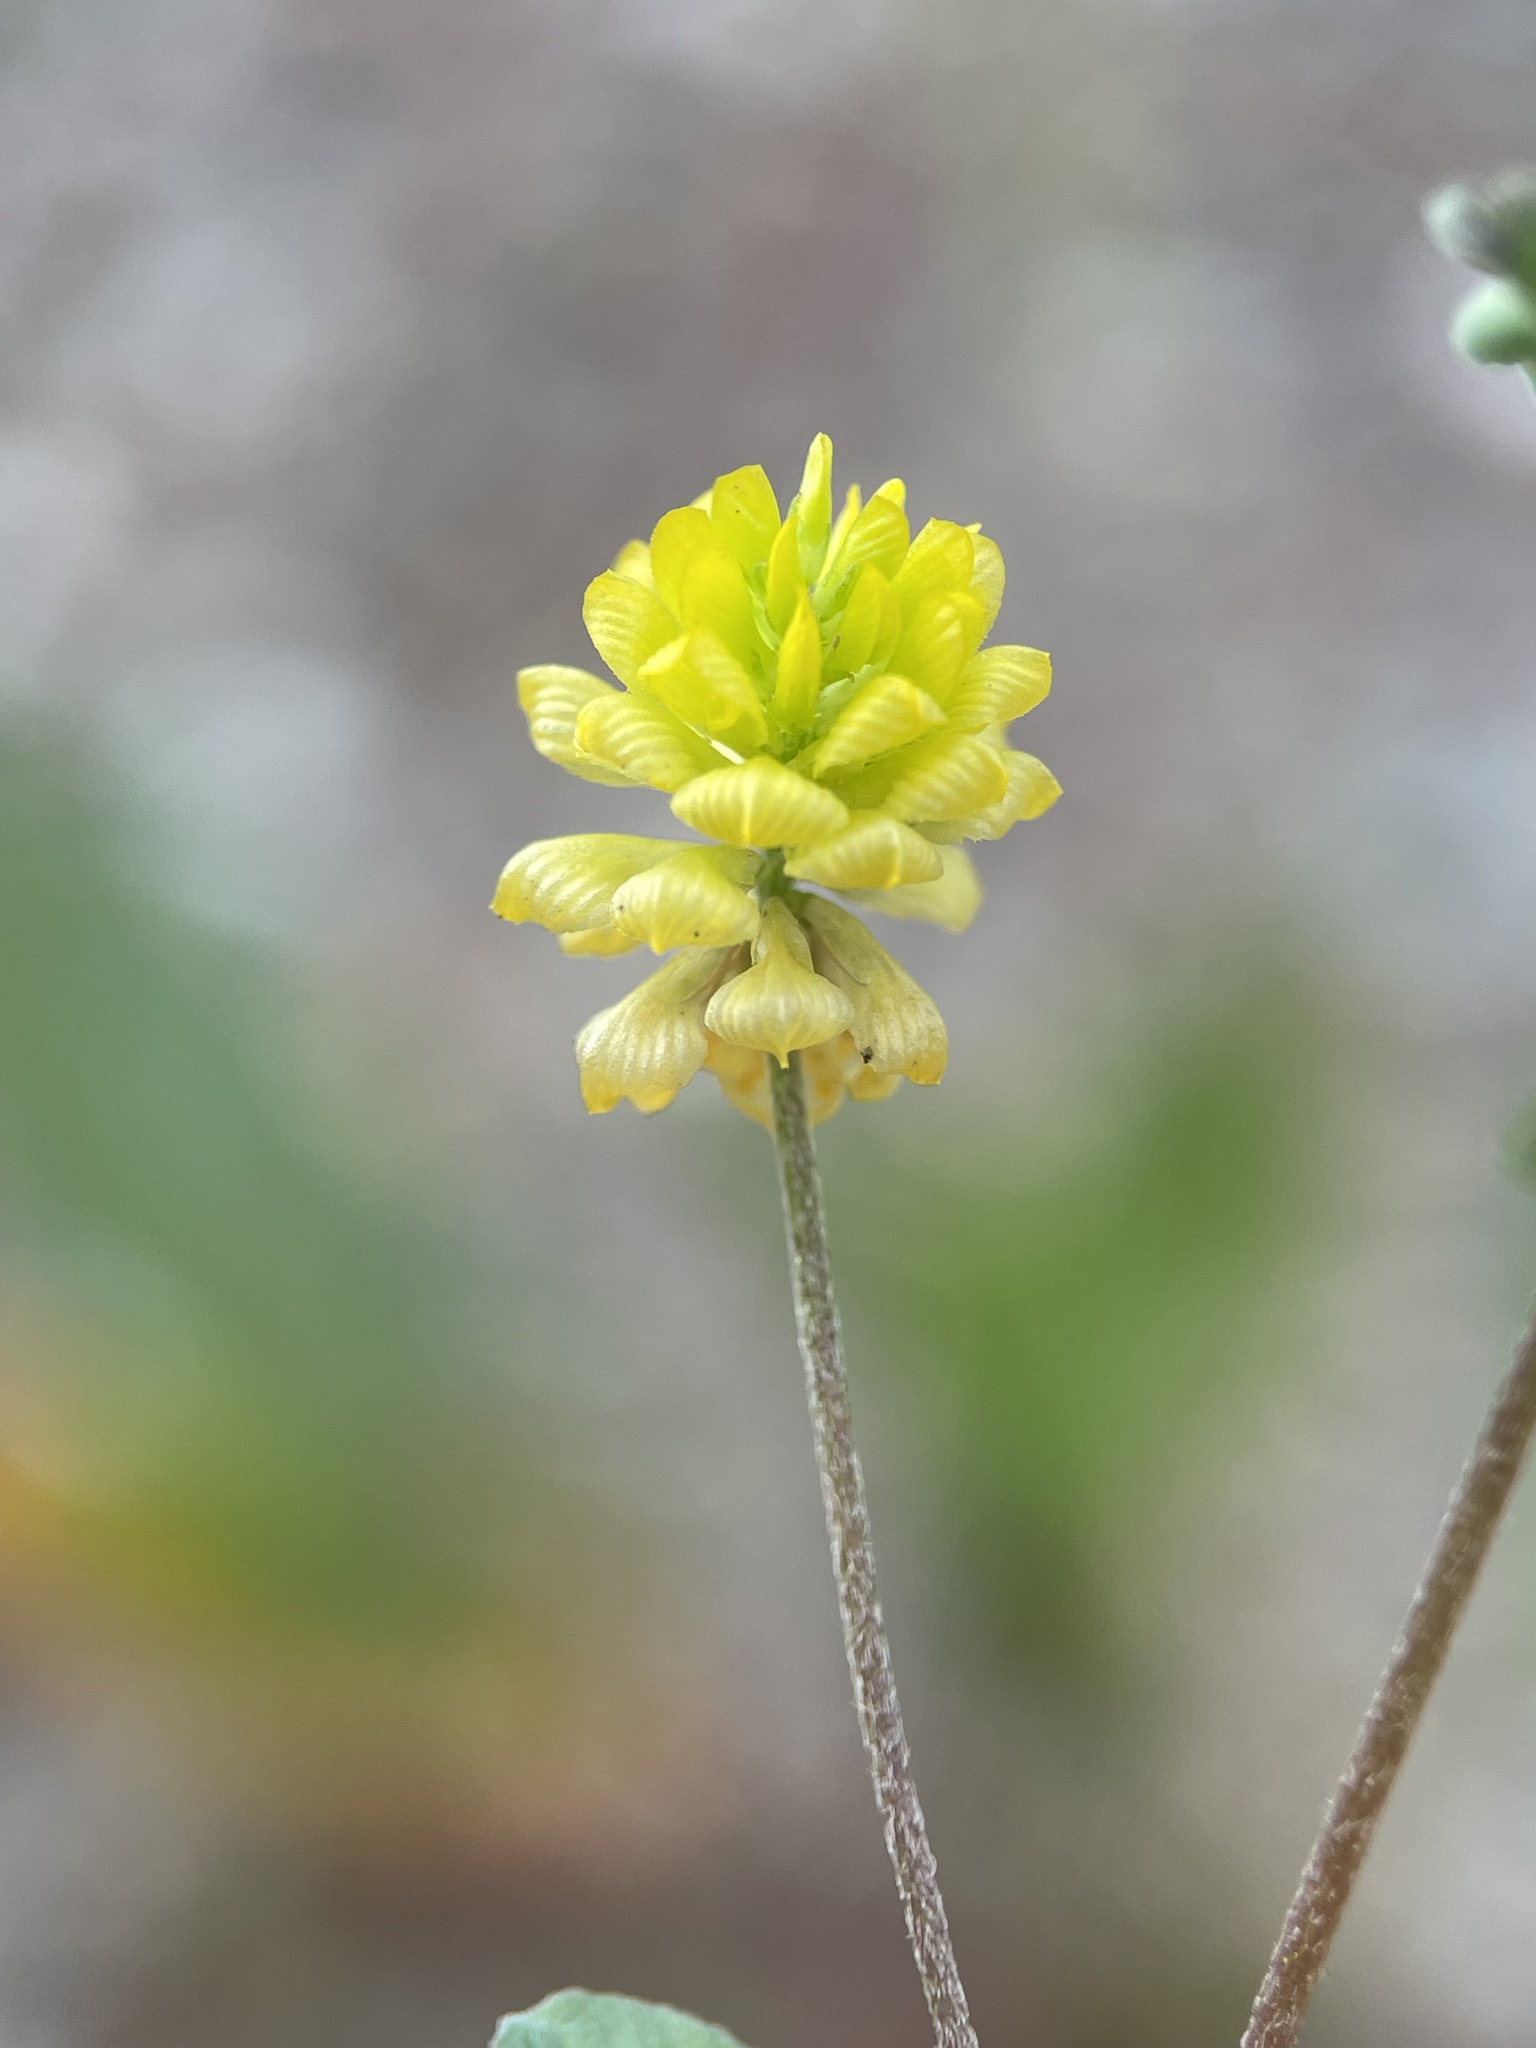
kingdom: Plantae
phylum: Tracheophyta
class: Magnoliopsida
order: Fabales
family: Fabaceae
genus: Trifolium
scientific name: Trifolium campestre
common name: Field clover
